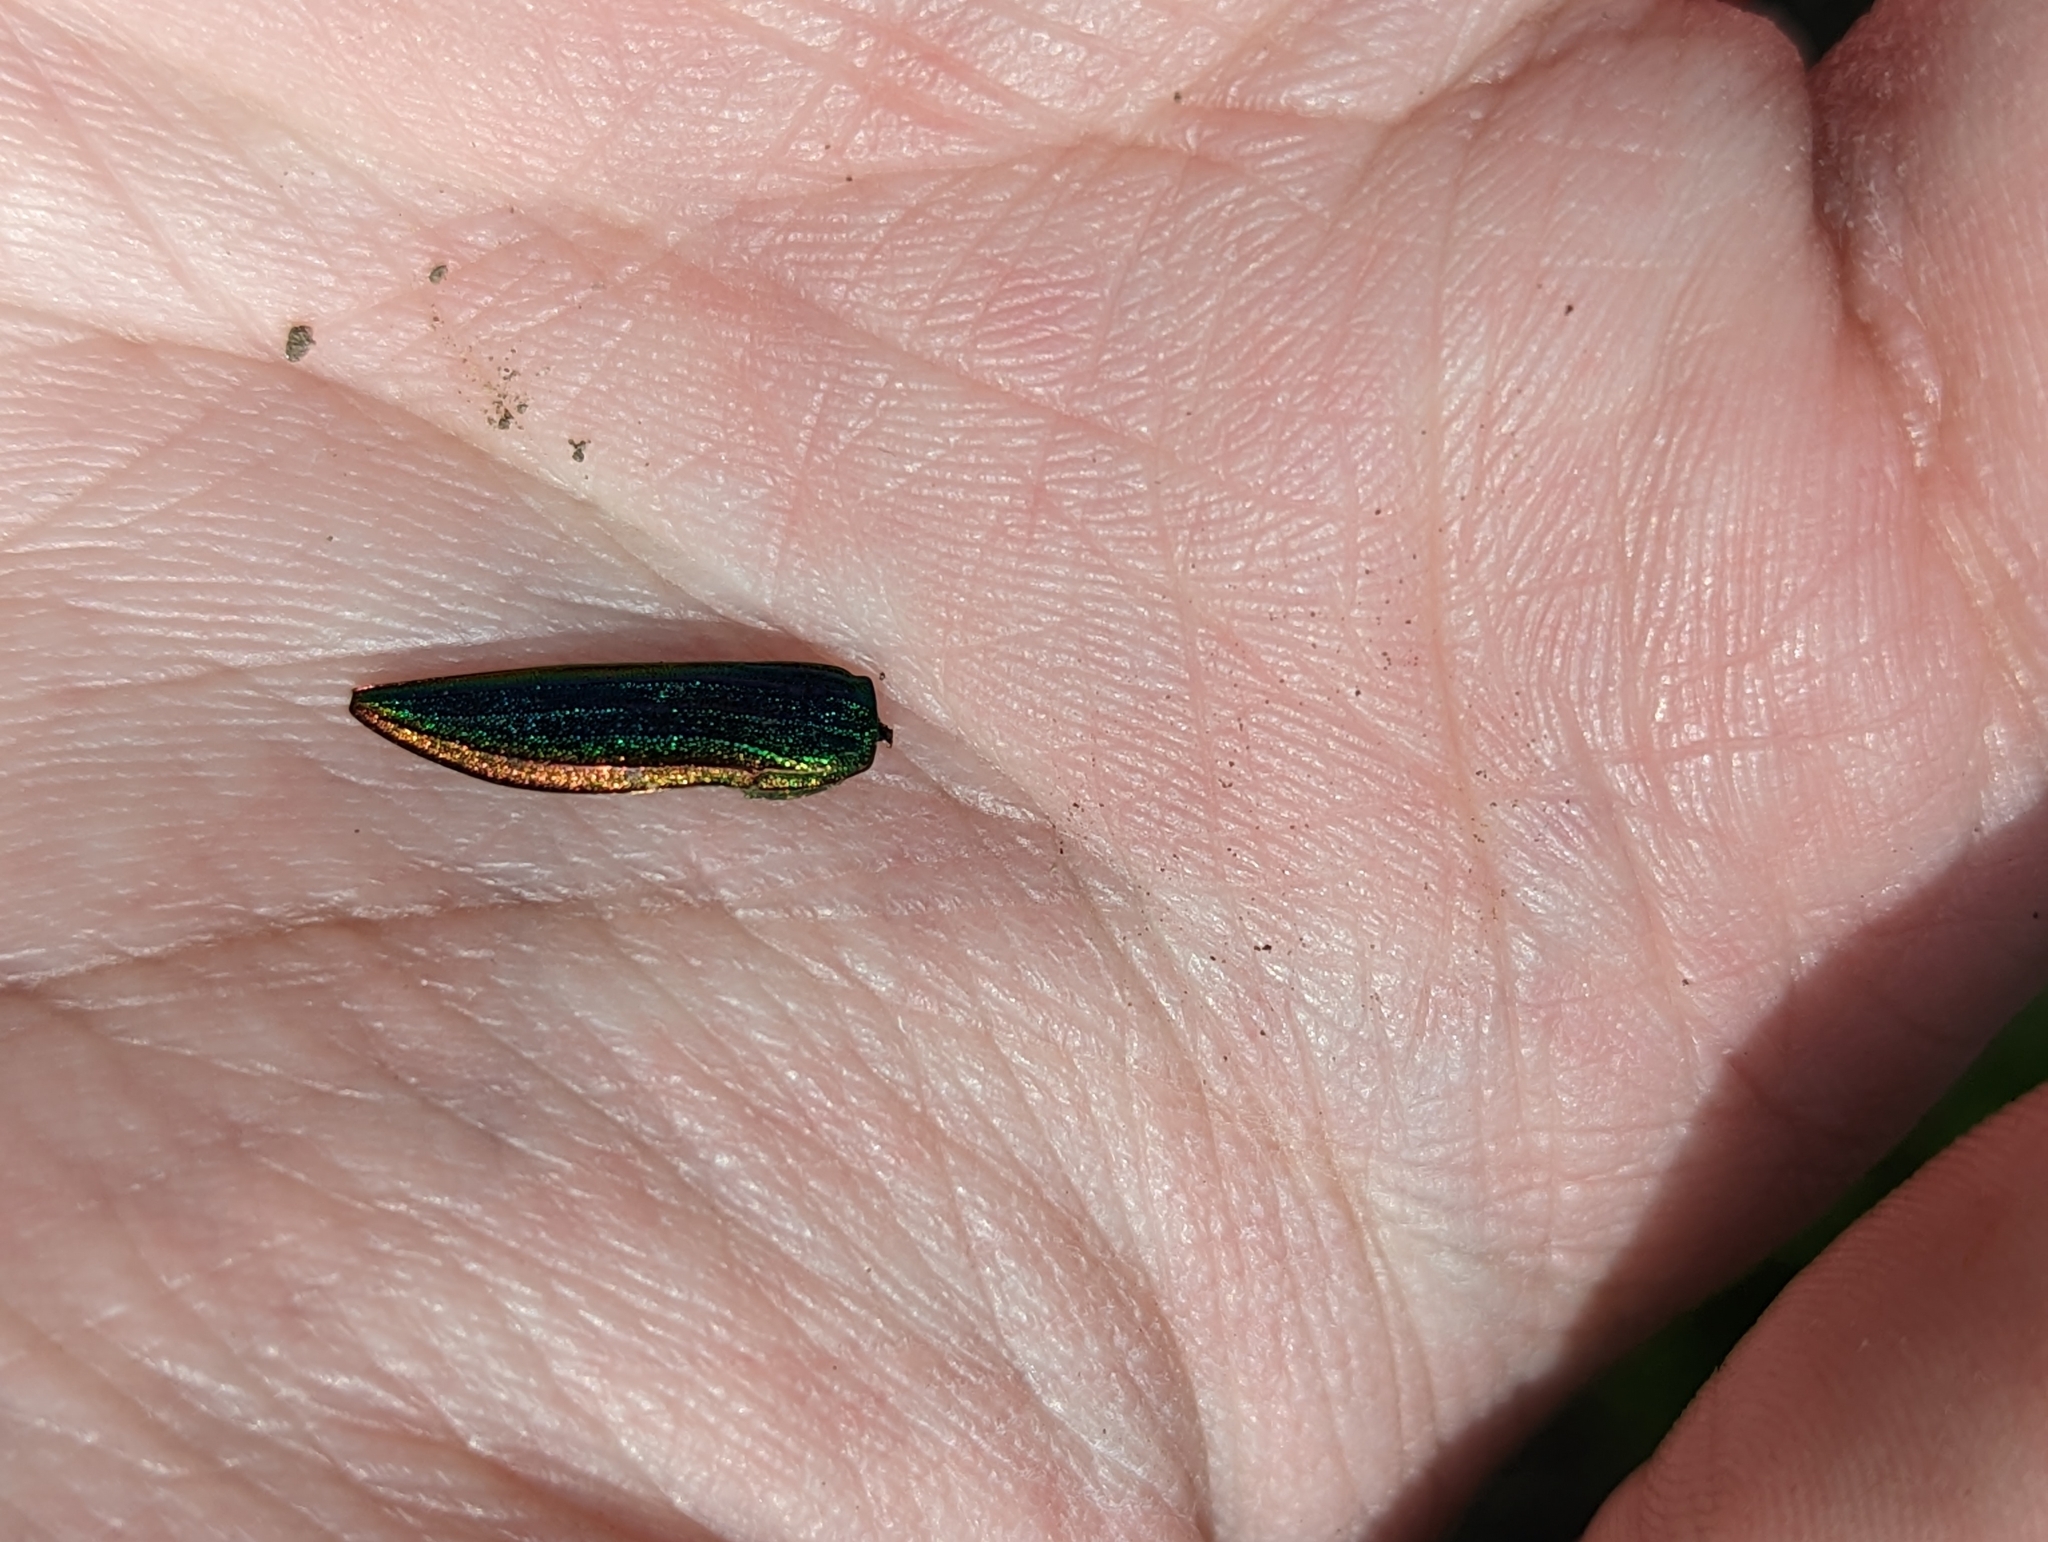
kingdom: Animalia
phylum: Arthropoda
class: Insecta
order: Coleoptera
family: Buprestidae
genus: Buprestis
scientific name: Buprestis aurulenta
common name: Golden buprestid
